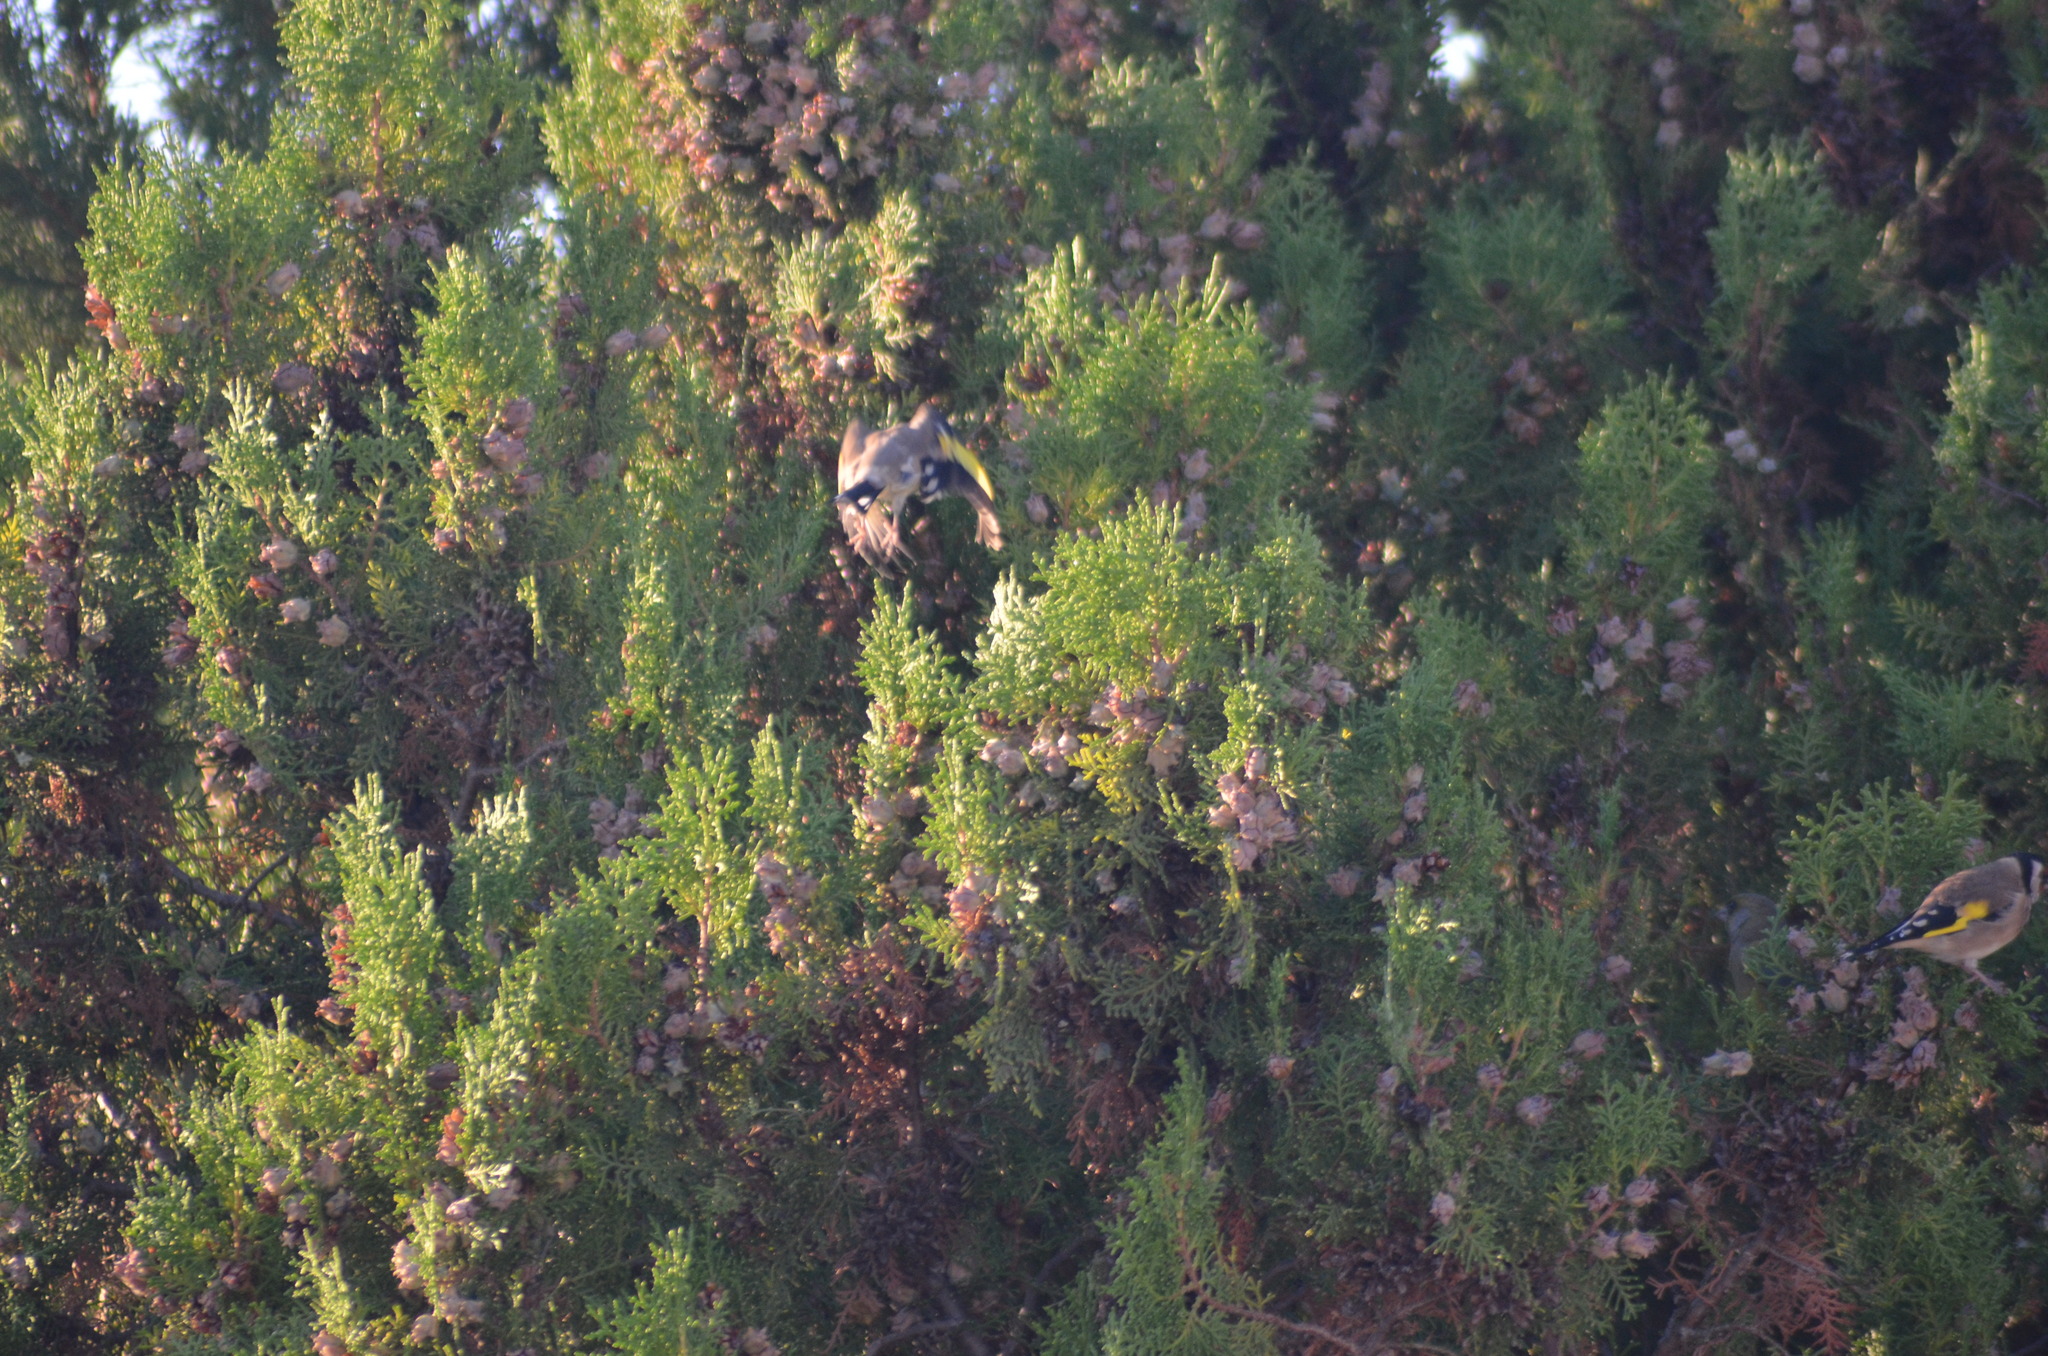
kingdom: Animalia
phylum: Chordata
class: Aves
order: Passeriformes
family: Fringillidae
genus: Carduelis
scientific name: Carduelis carduelis
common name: European goldfinch
